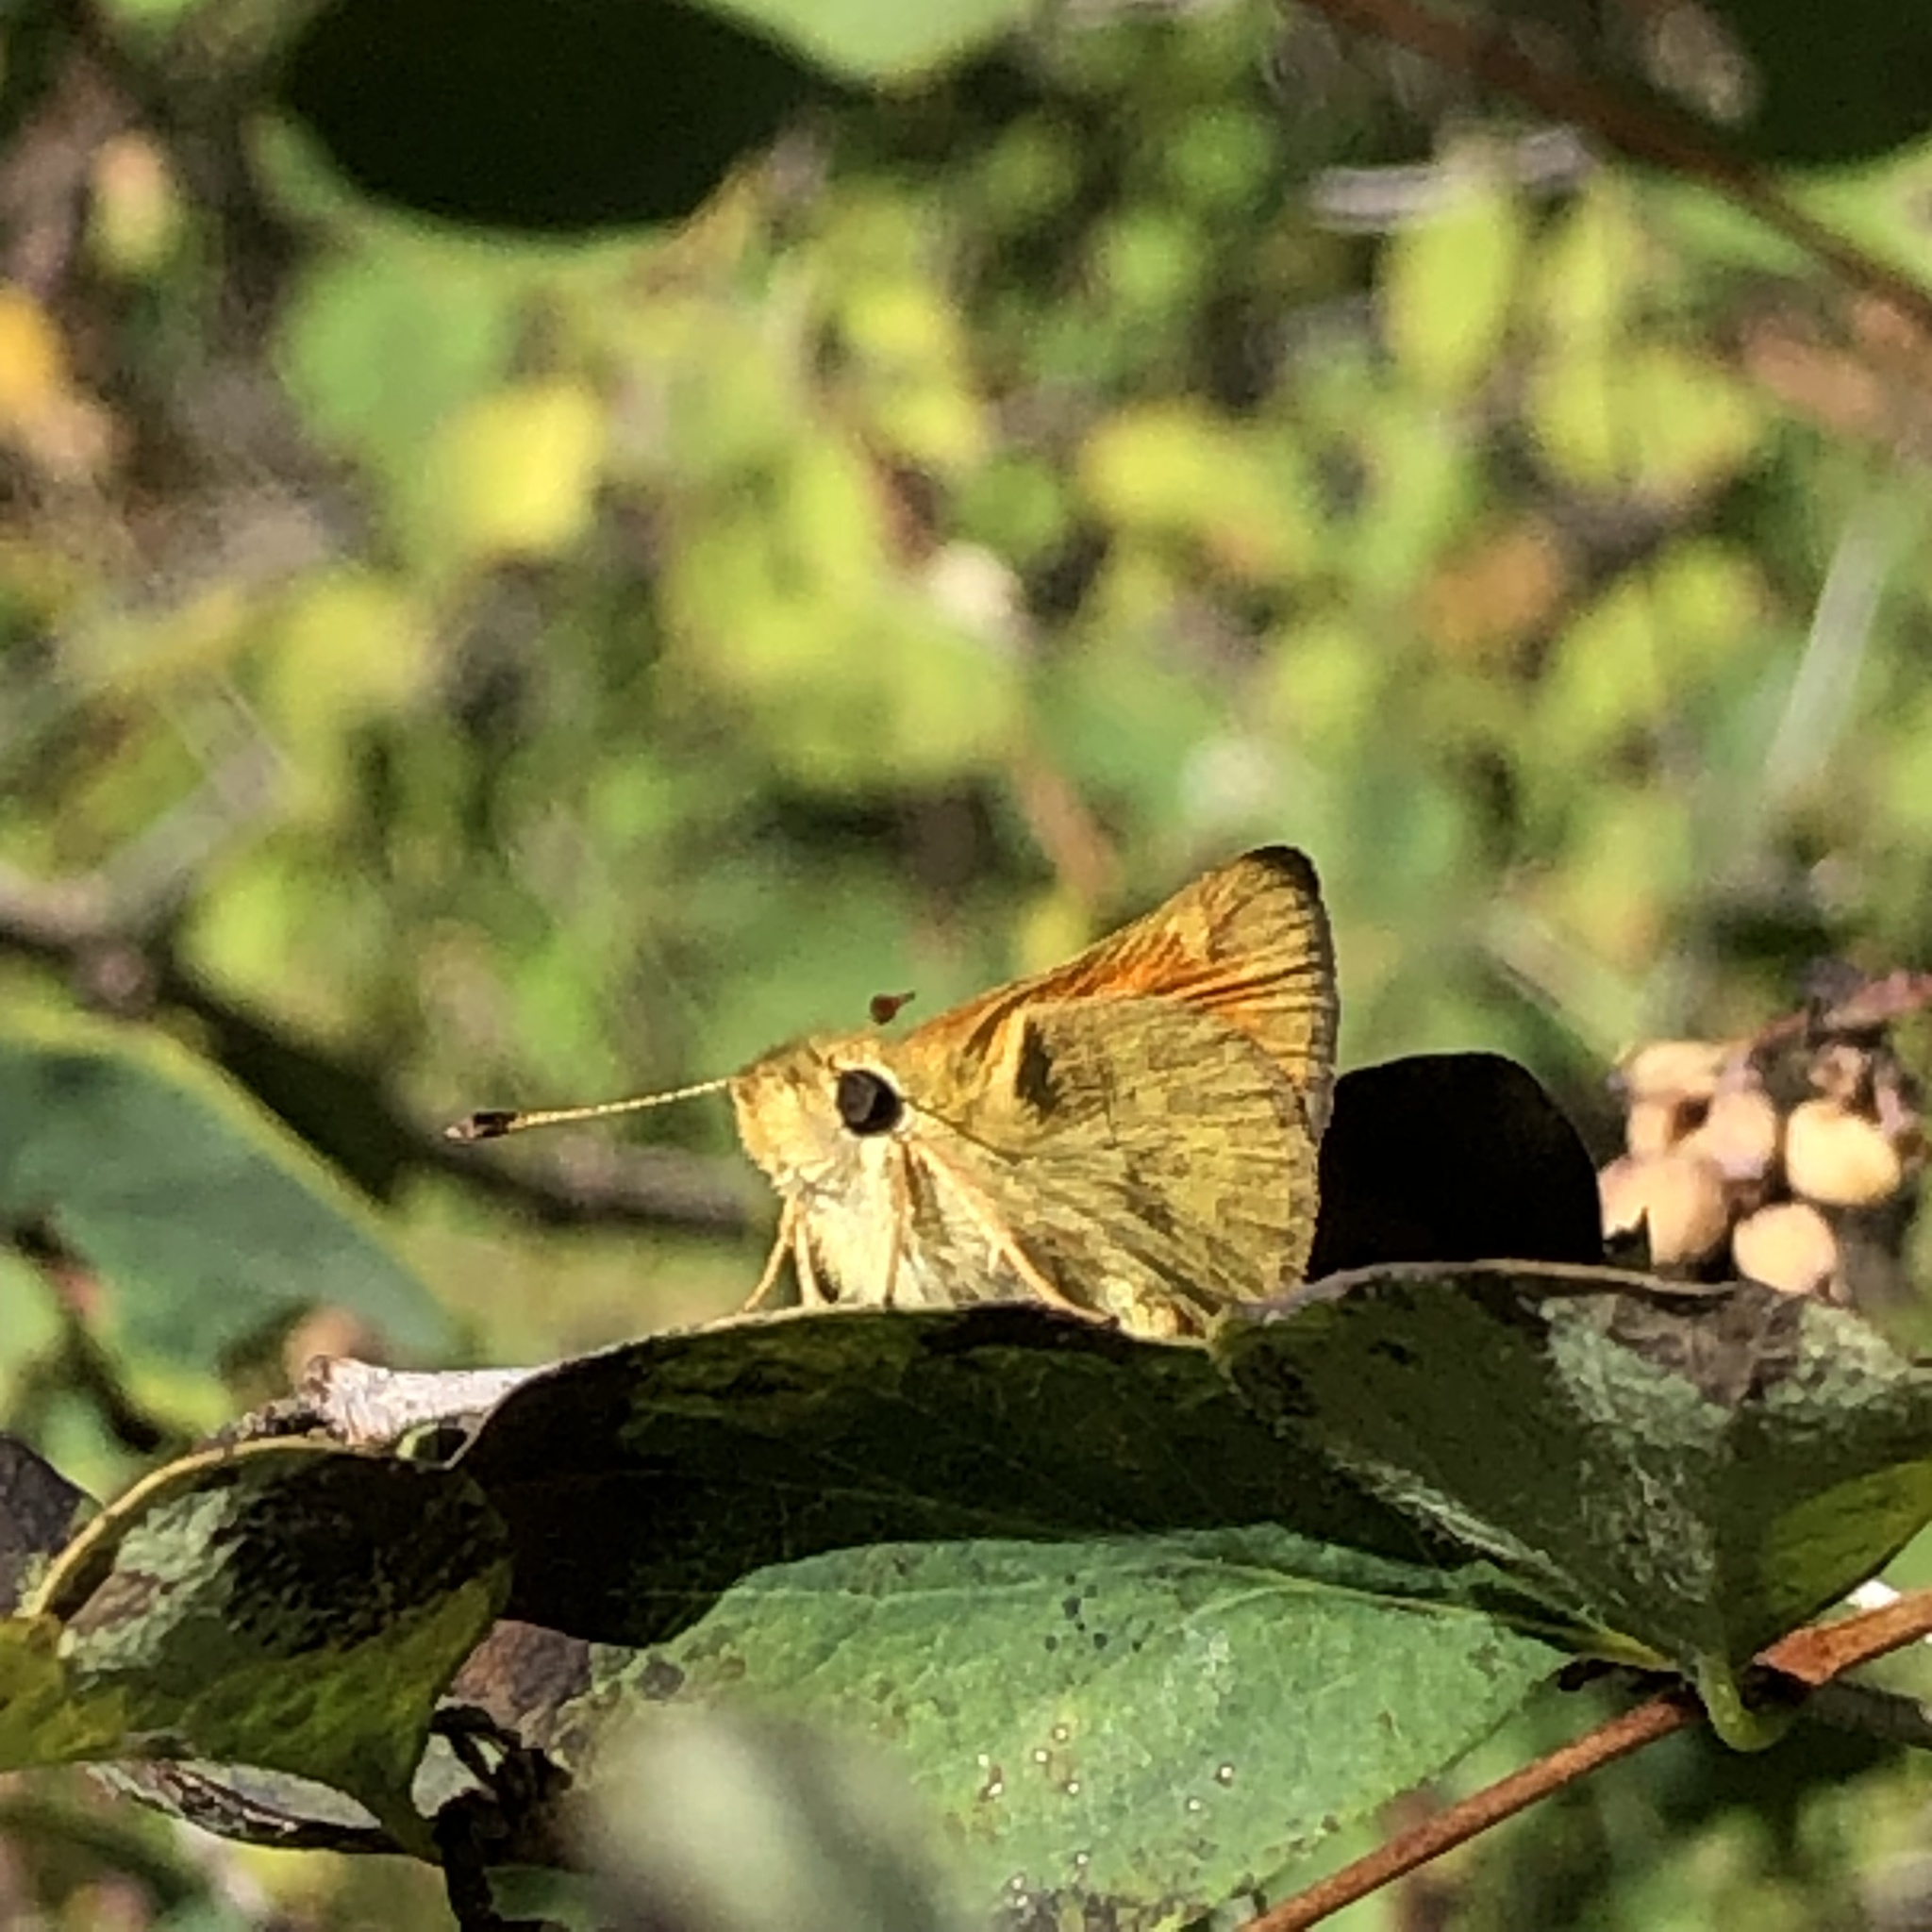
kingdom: Animalia
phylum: Arthropoda
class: Insecta
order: Lepidoptera
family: Hesperiidae
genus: Ochlodes
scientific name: Ochlodes sylvanoides
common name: Woodland skipper
